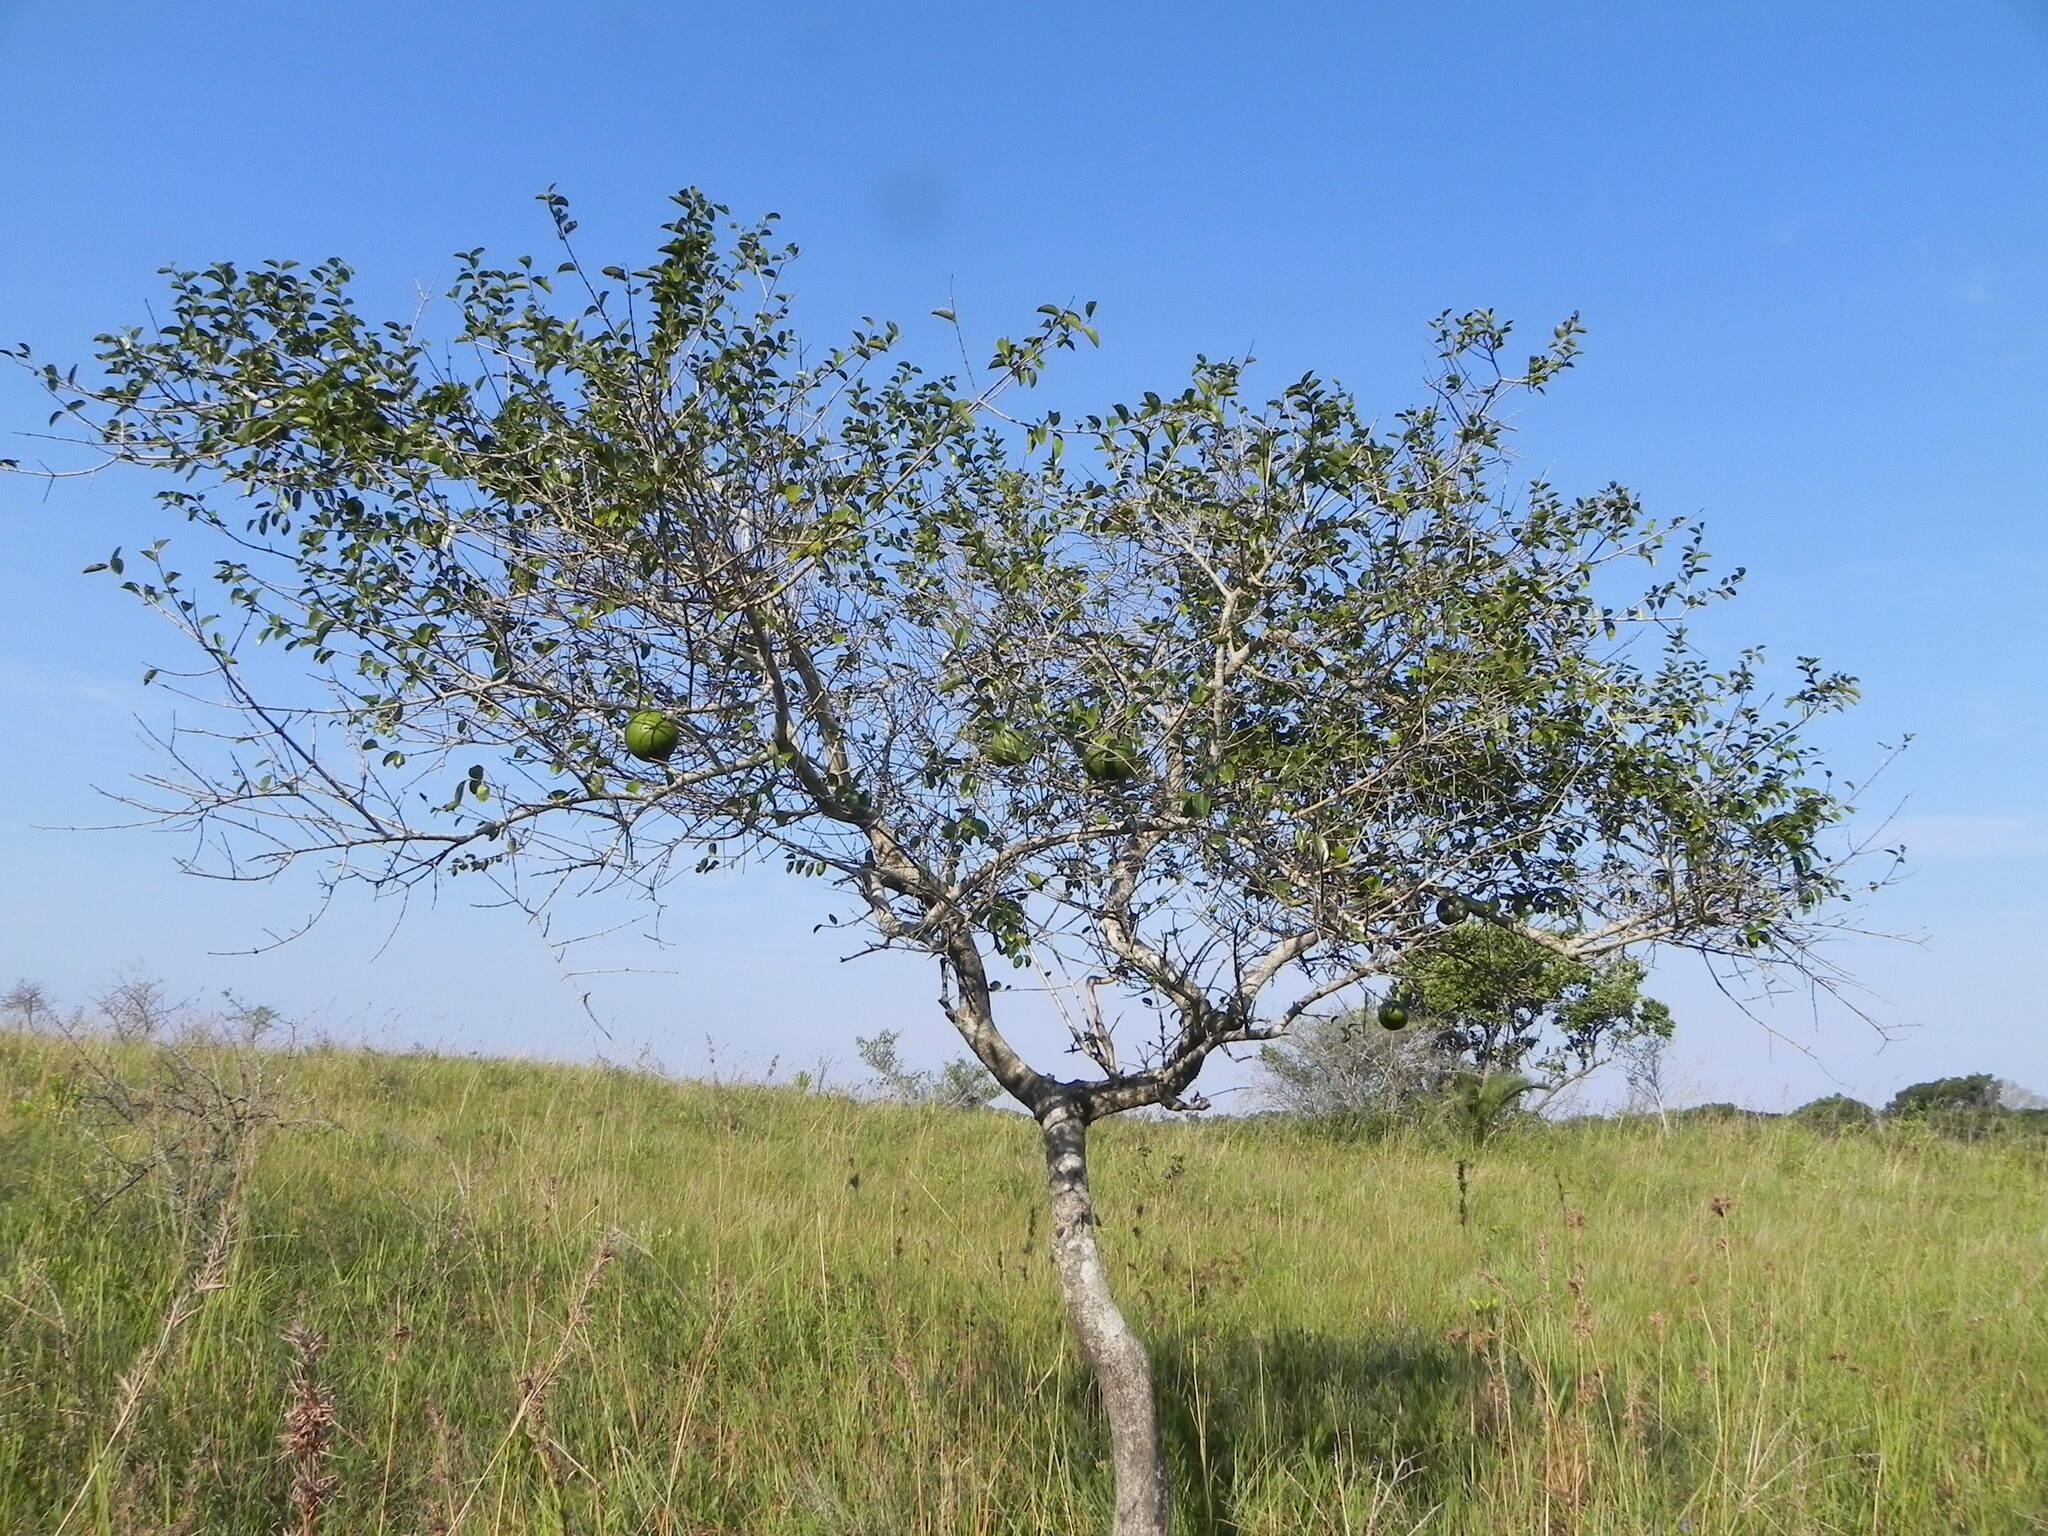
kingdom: Plantae
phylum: Tracheophyta
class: Magnoliopsida
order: Gentianales
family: Loganiaceae
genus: Strychnos
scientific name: Strychnos spinosa
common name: Natal orange
